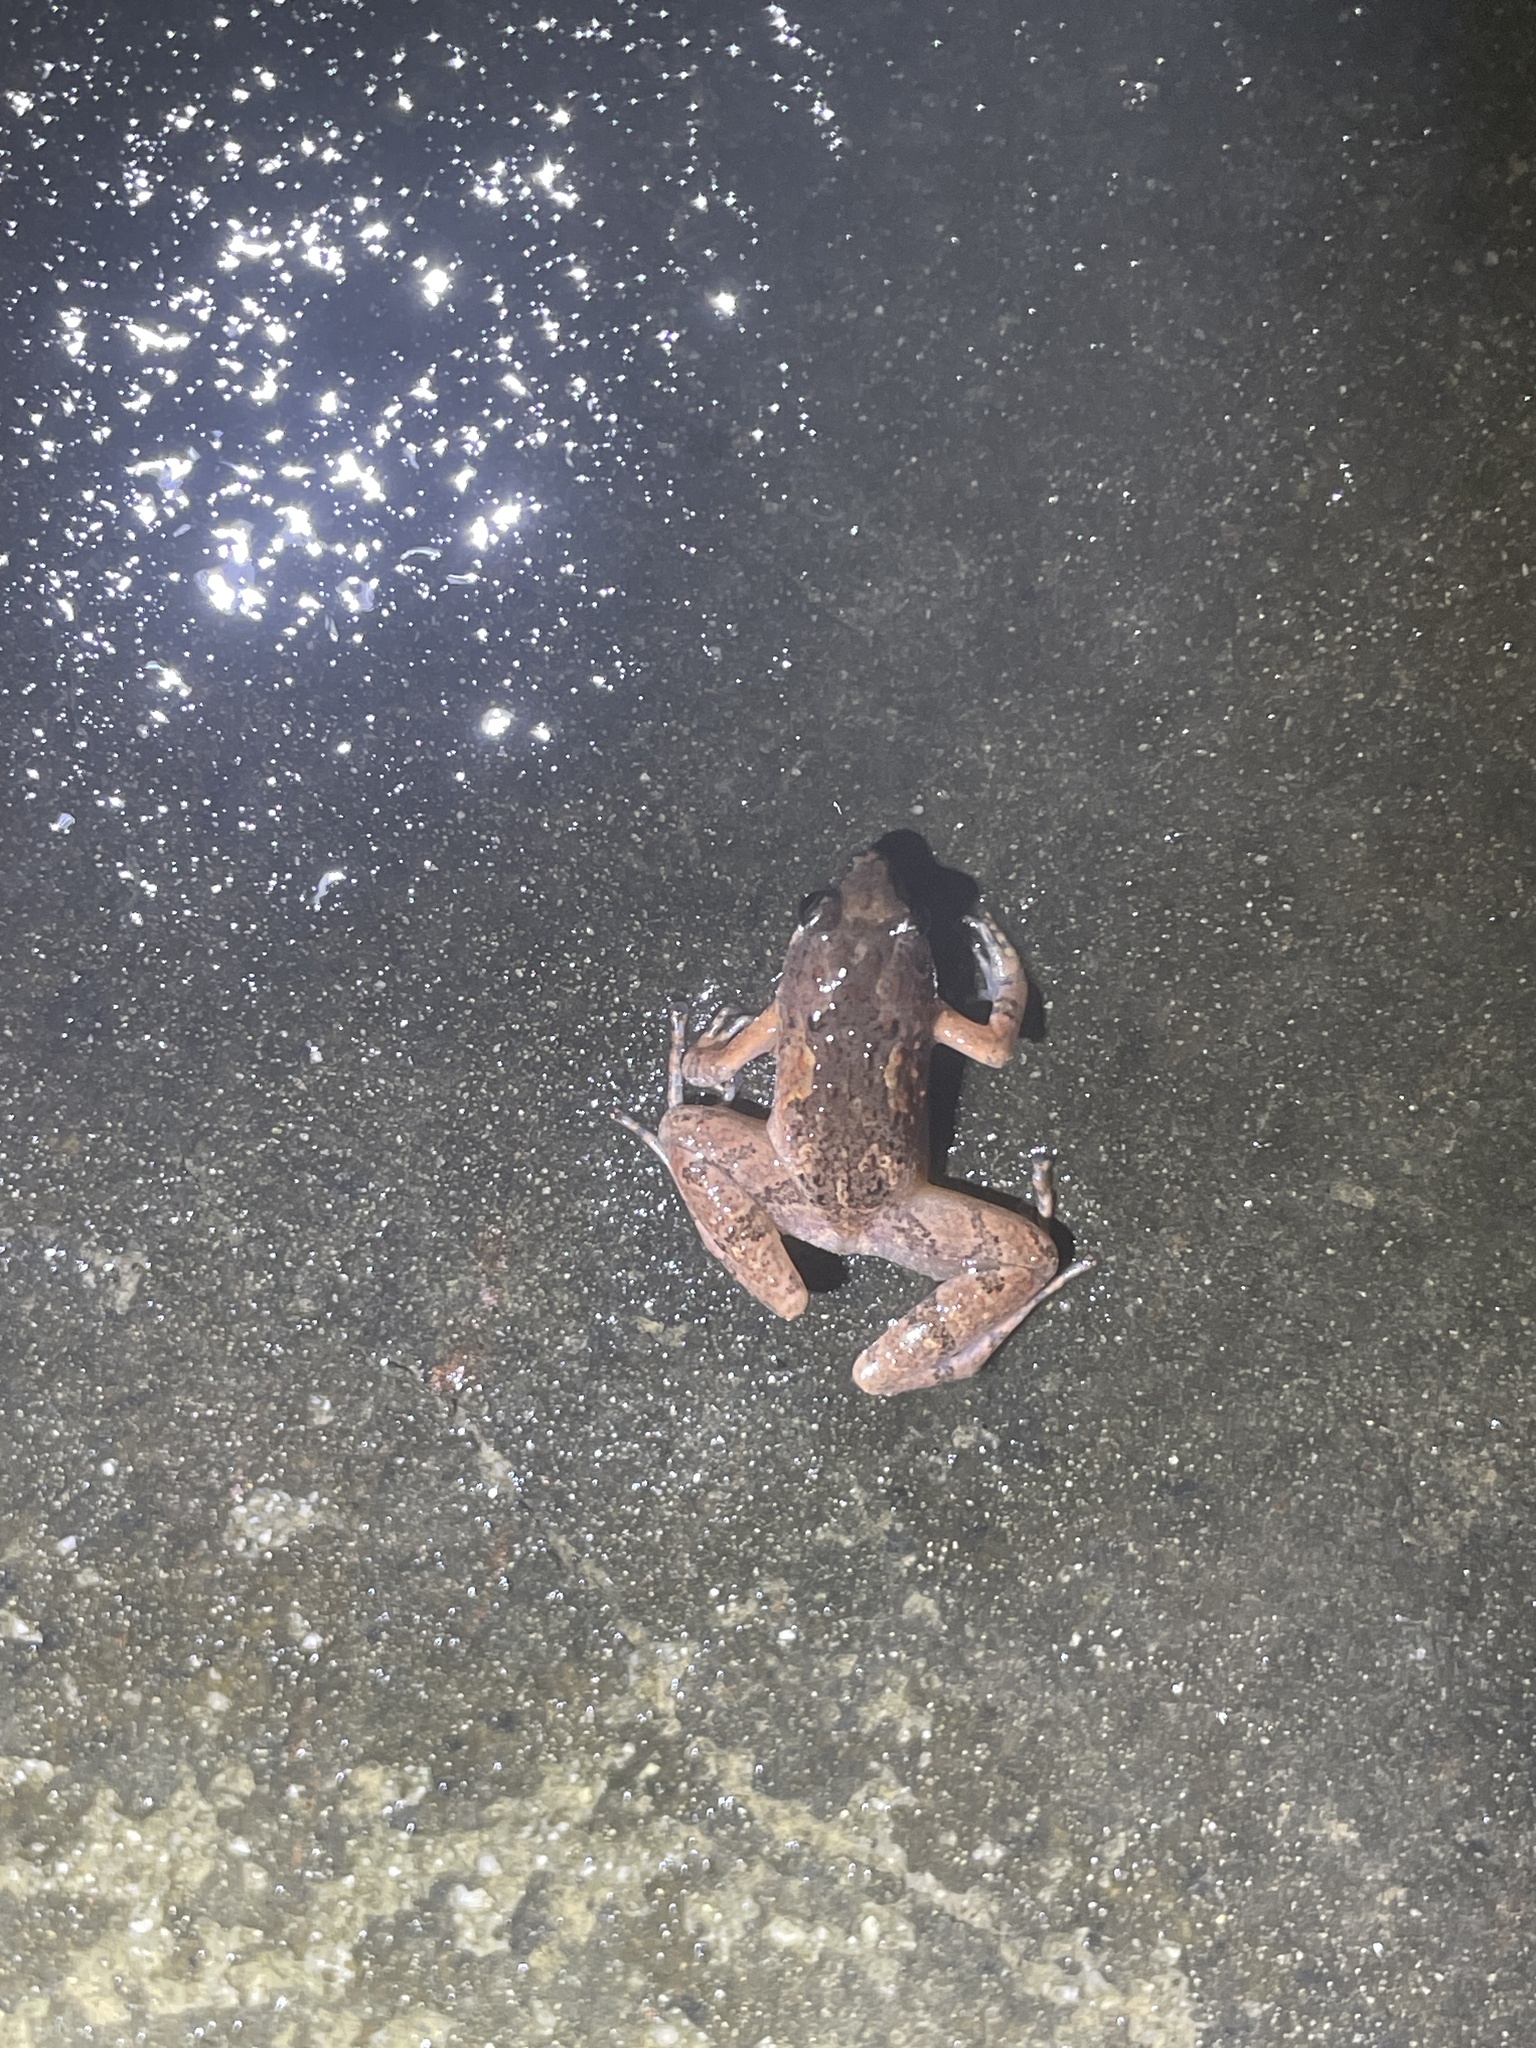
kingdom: Animalia
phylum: Chordata
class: Amphibia
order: Anura
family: Microhylidae
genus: Microhyla
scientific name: Microhyla butleri
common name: Butler’s rice frog,painted chorus frog,tubercled pygmy frog
